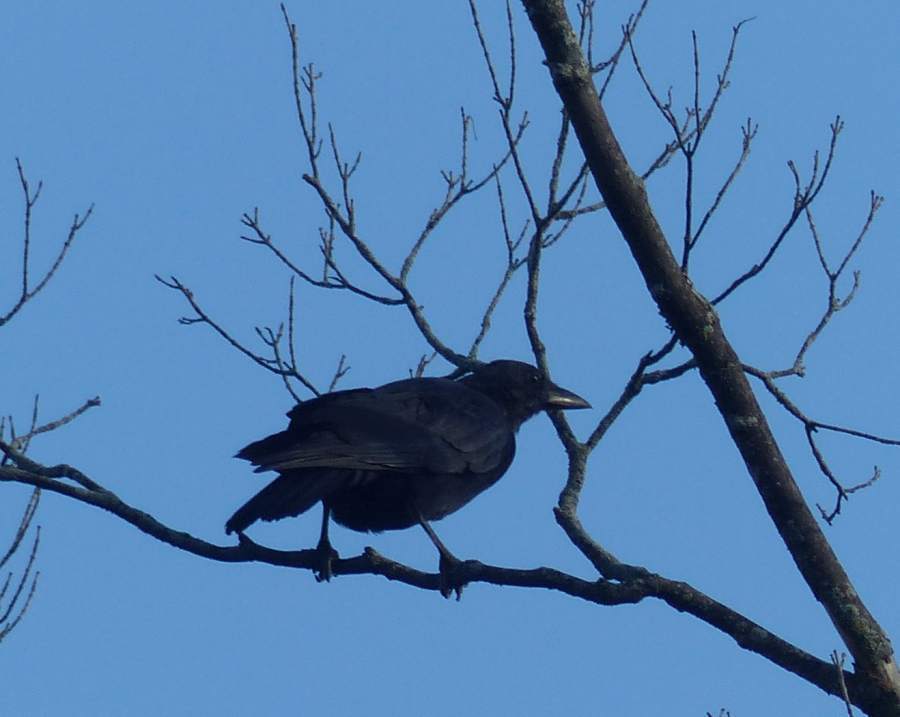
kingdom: Animalia
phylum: Chordata
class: Aves
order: Passeriformes
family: Corvidae
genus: Corvus
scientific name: Corvus brachyrhynchos
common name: American crow
